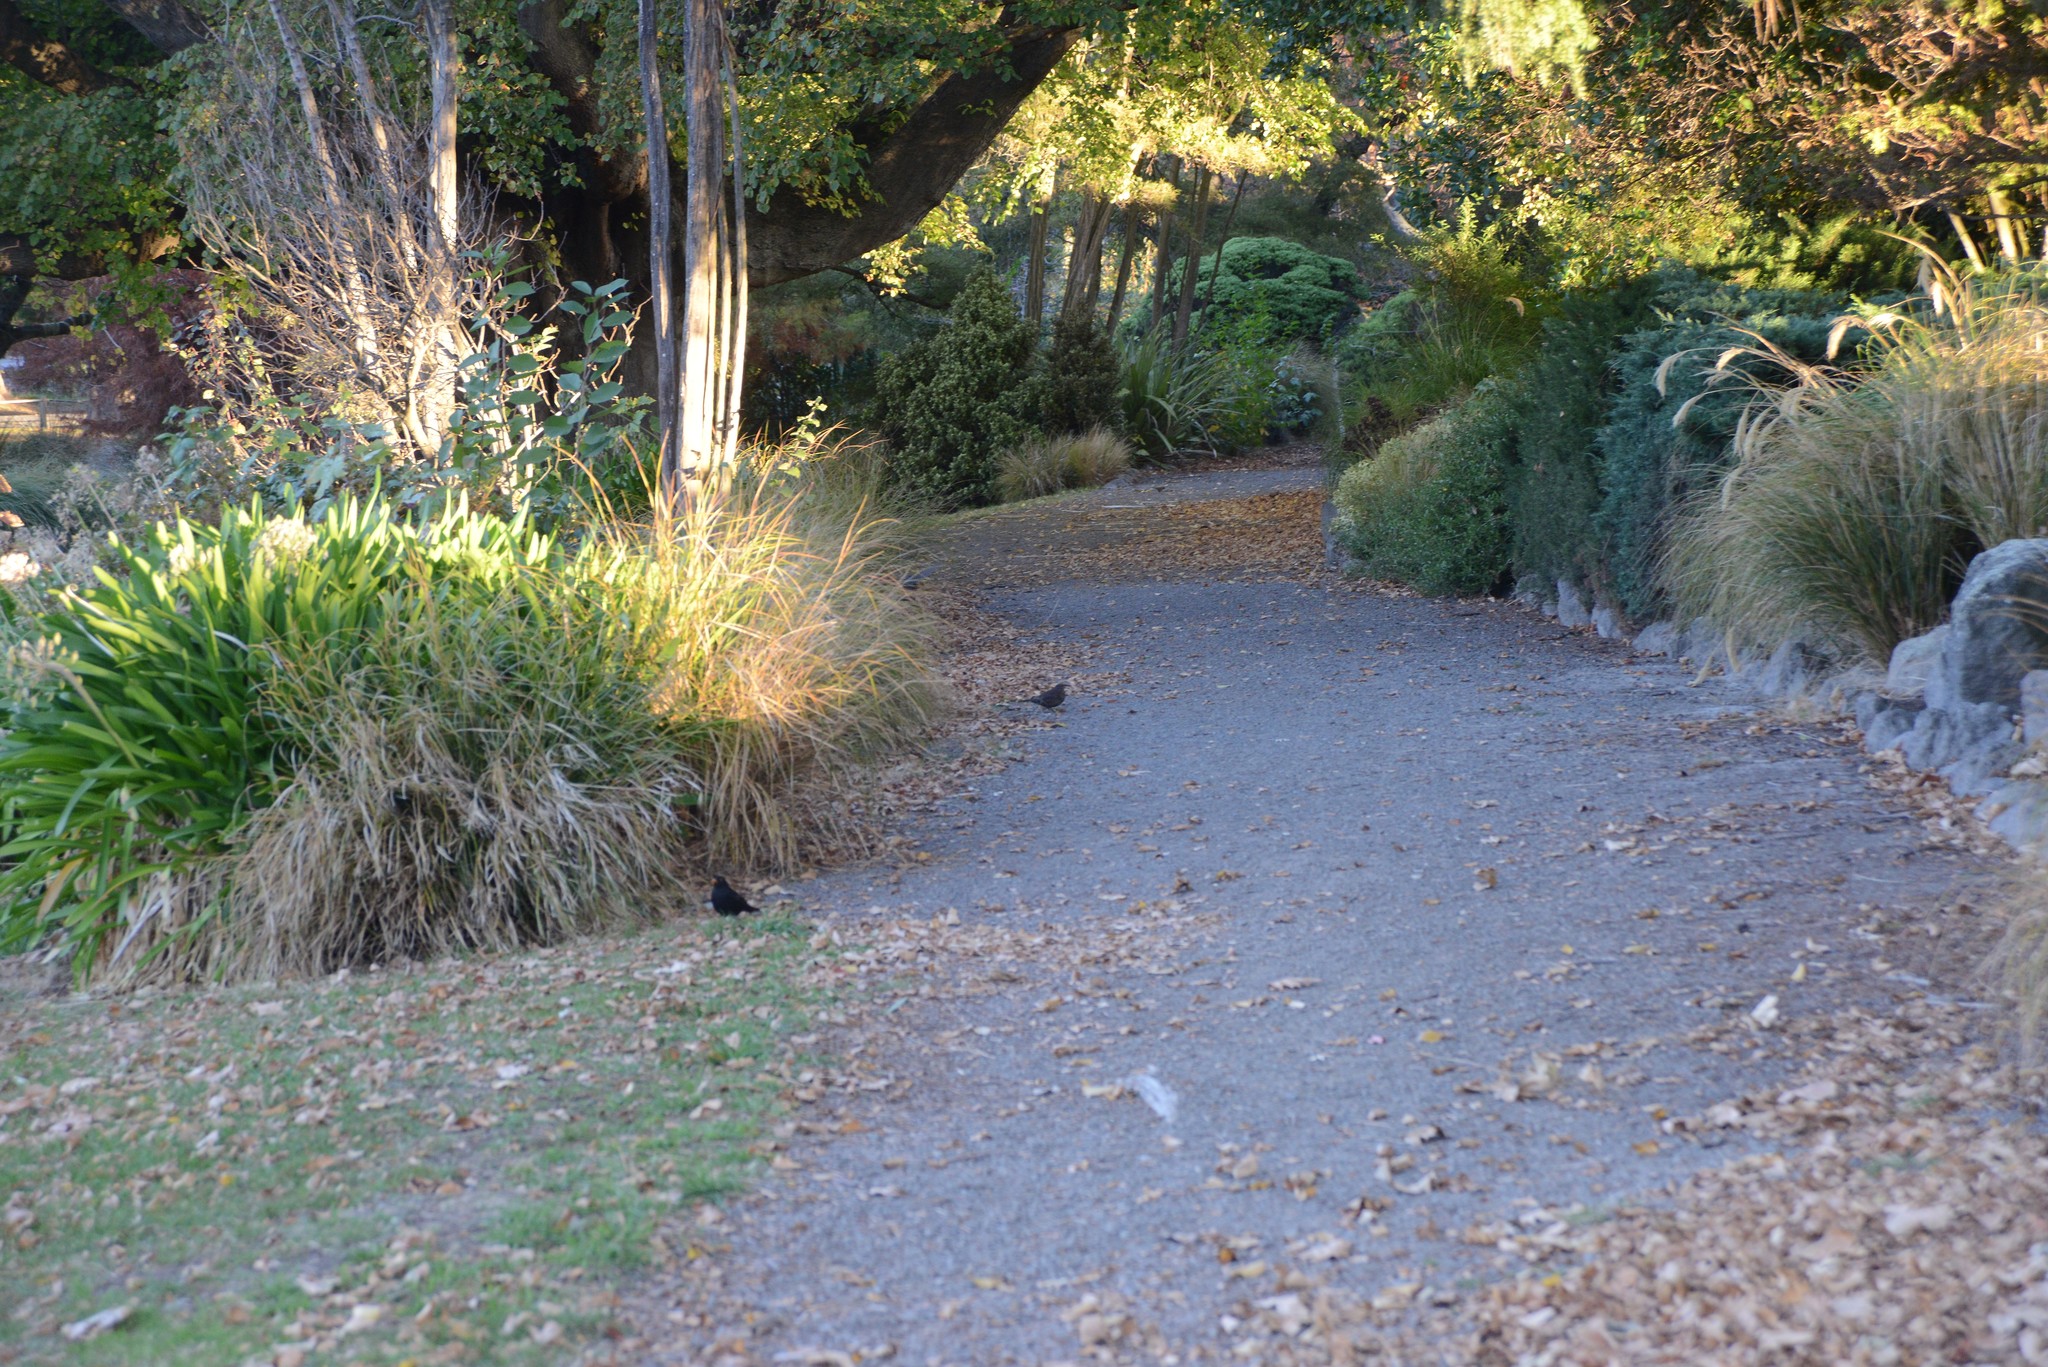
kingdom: Animalia
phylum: Chordata
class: Aves
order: Passeriformes
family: Turdidae
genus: Turdus
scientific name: Turdus merula
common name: Common blackbird
